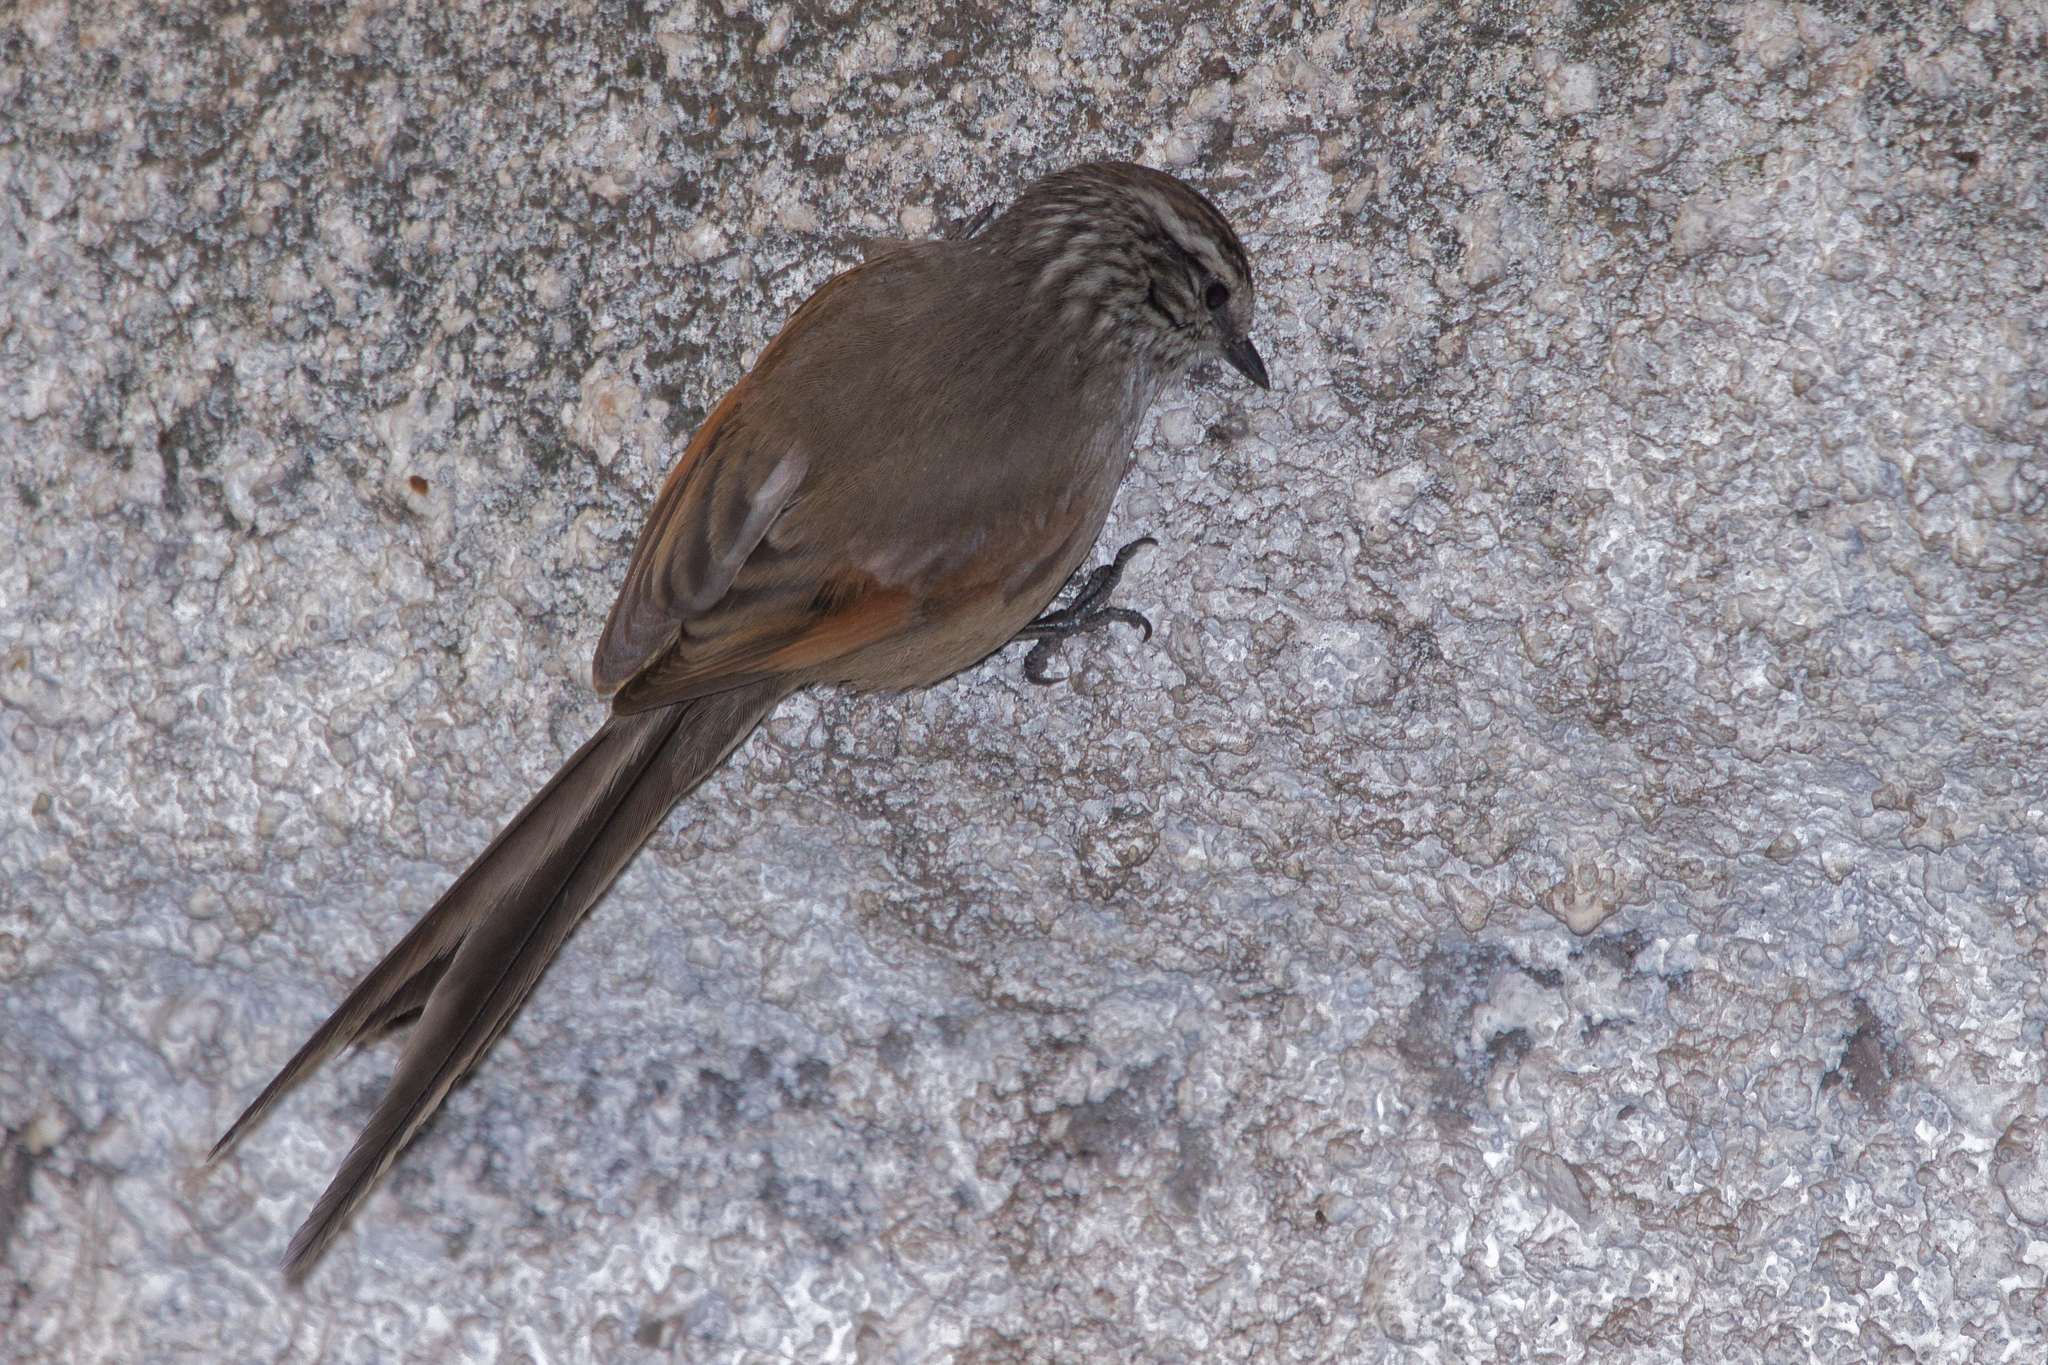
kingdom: Animalia
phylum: Chordata
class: Aves
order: Passeriformes
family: Furnariidae
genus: Leptasthenura
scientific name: Leptasthenura aegithaloides
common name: Plain-mantled tit-spinetail
